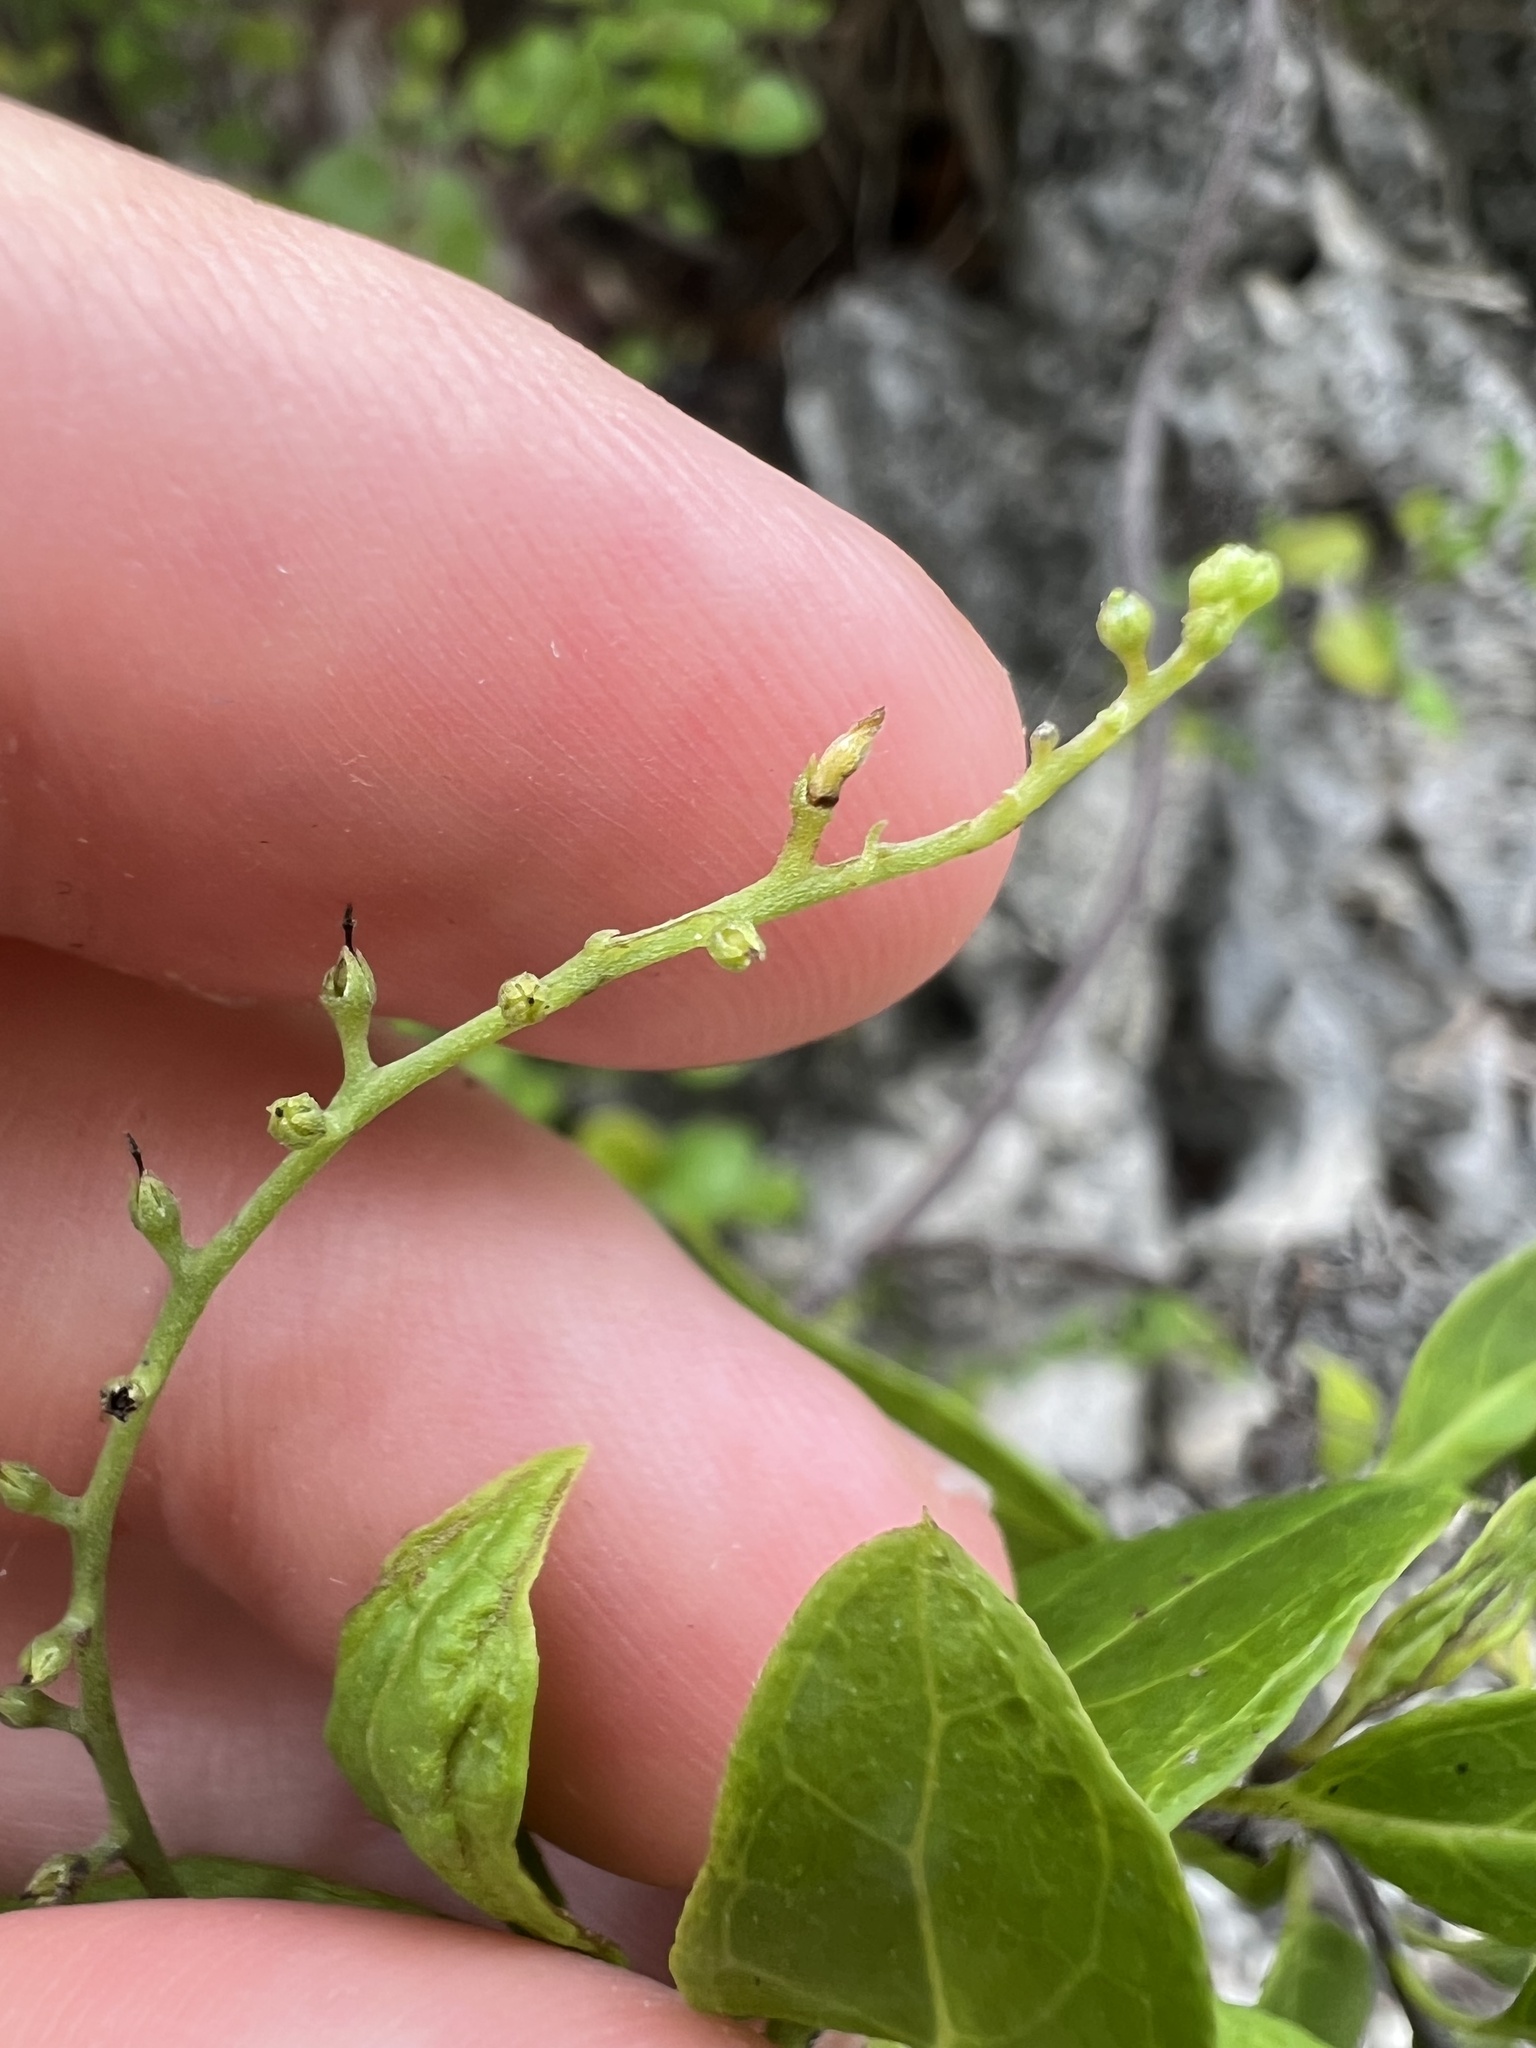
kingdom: Plantae
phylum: Tracheophyta
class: Magnoliopsida
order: Boraginales
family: Heliotropiaceae
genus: Myriopus
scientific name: Myriopus volubilis
